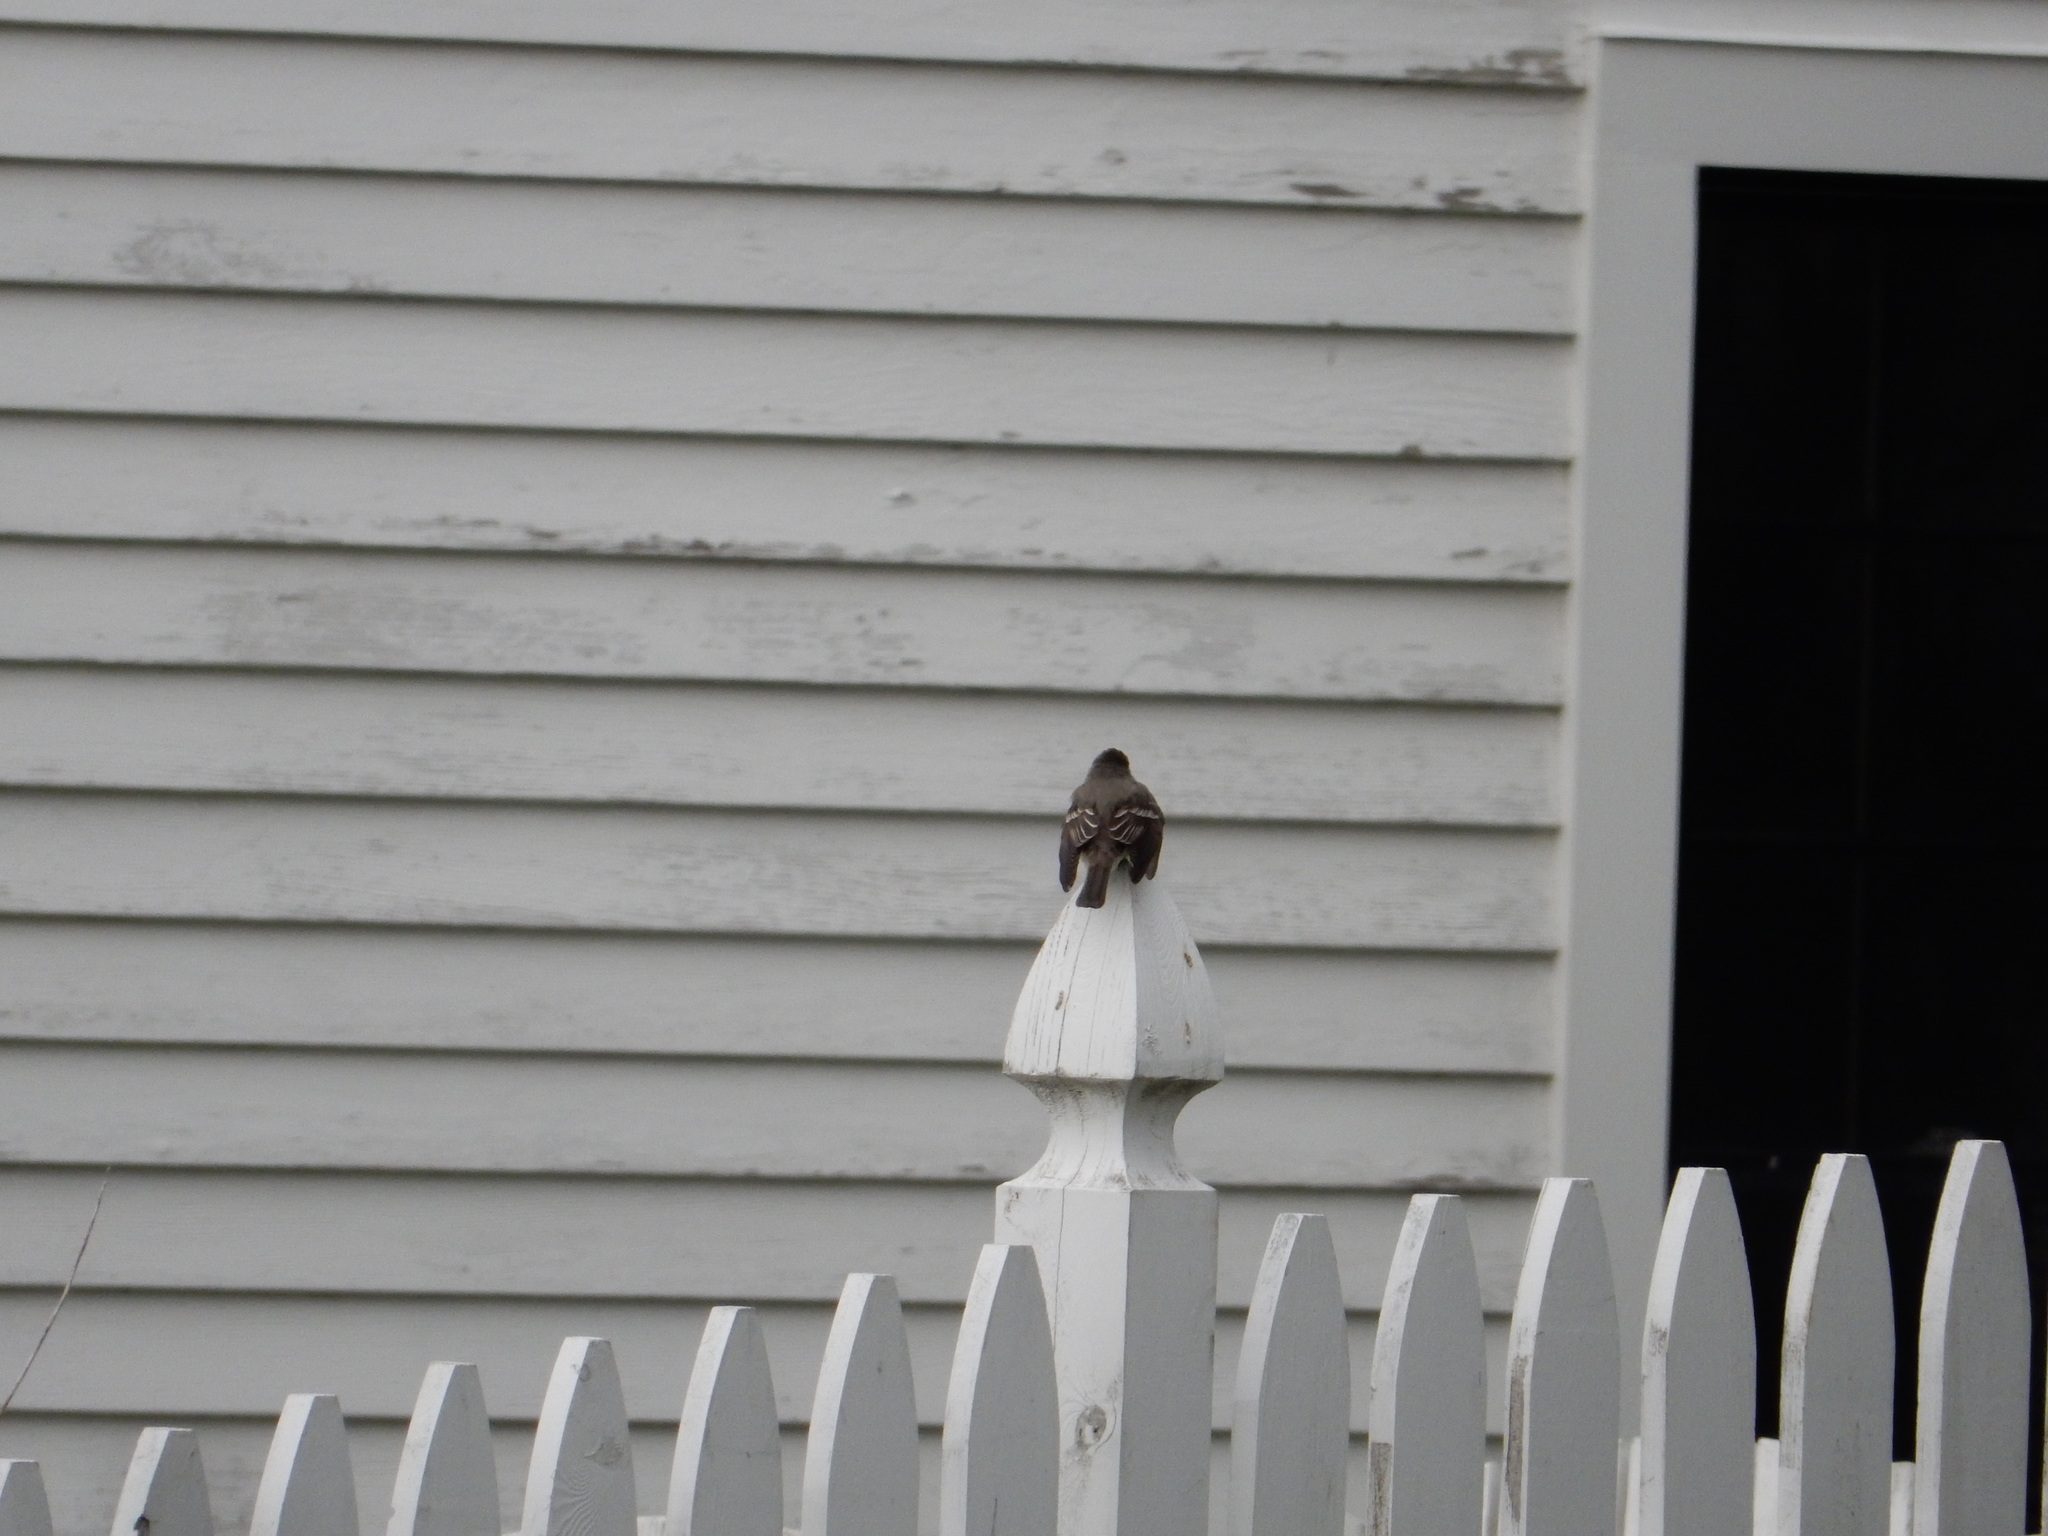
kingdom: Animalia
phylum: Chordata
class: Aves
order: Passeriformes
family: Tyrannidae
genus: Contopus
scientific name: Contopus virens
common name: Eastern wood-pewee
